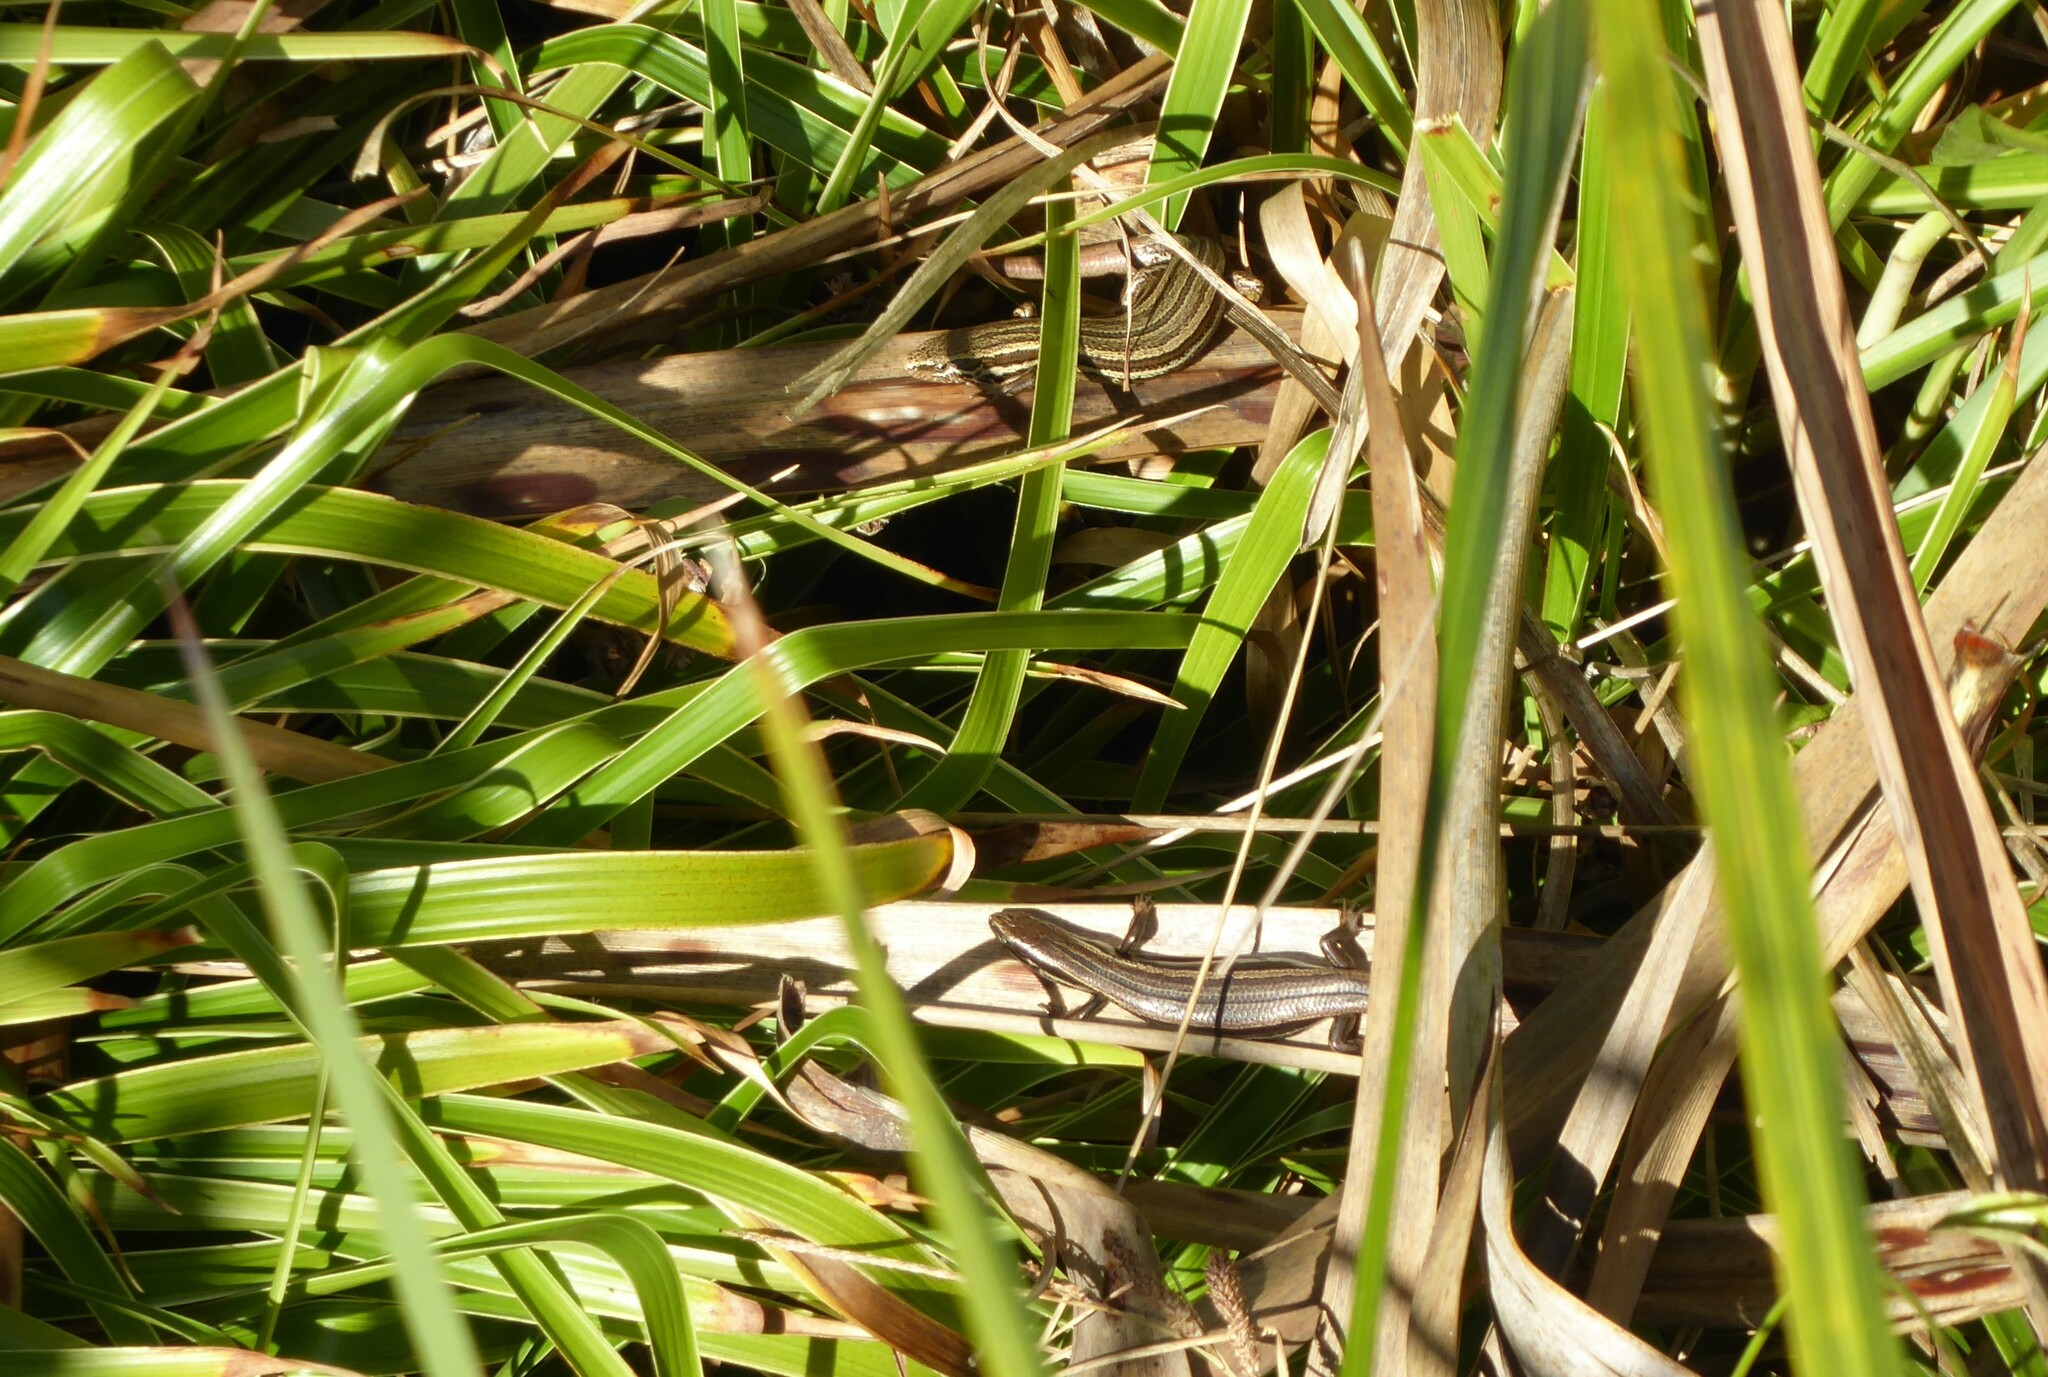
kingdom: Animalia
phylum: Chordata
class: Squamata
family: Scincidae
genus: Oligosoma
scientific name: Oligosoma polychroma
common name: Common new zealand skink
